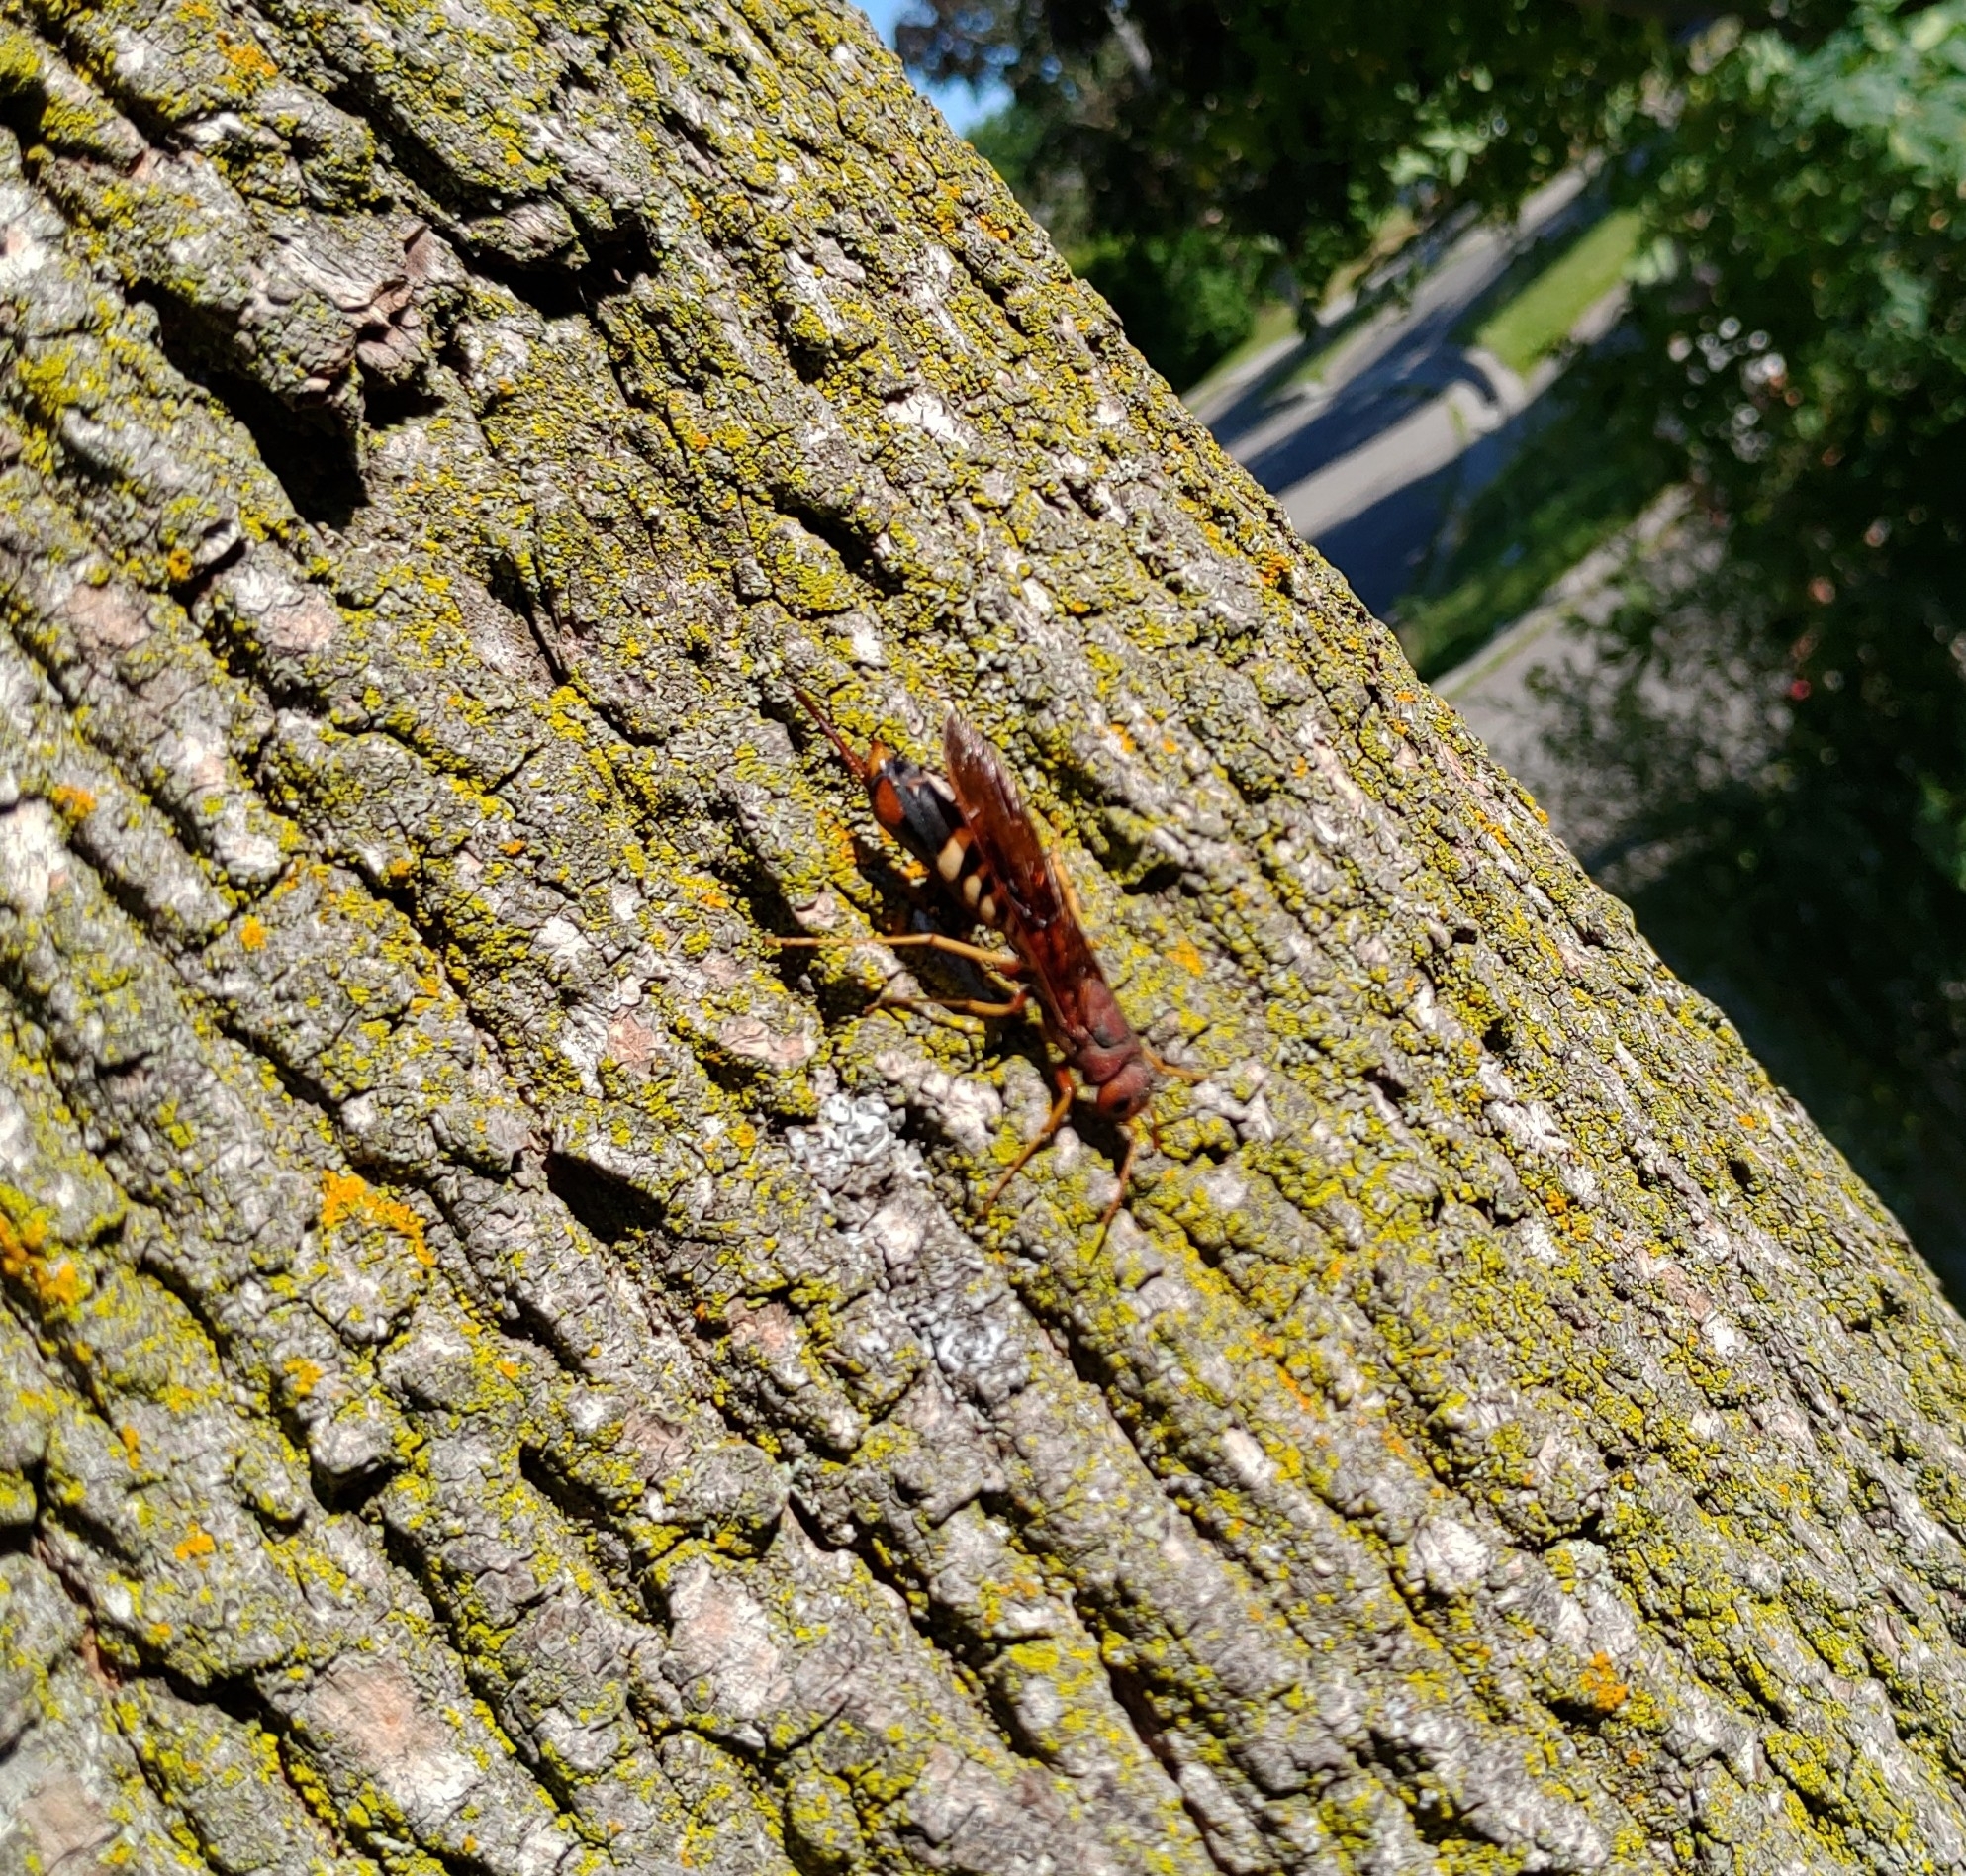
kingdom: Animalia
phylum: Arthropoda
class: Insecta
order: Hymenoptera
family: Siricidae
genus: Tremex
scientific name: Tremex columba
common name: Wasp
